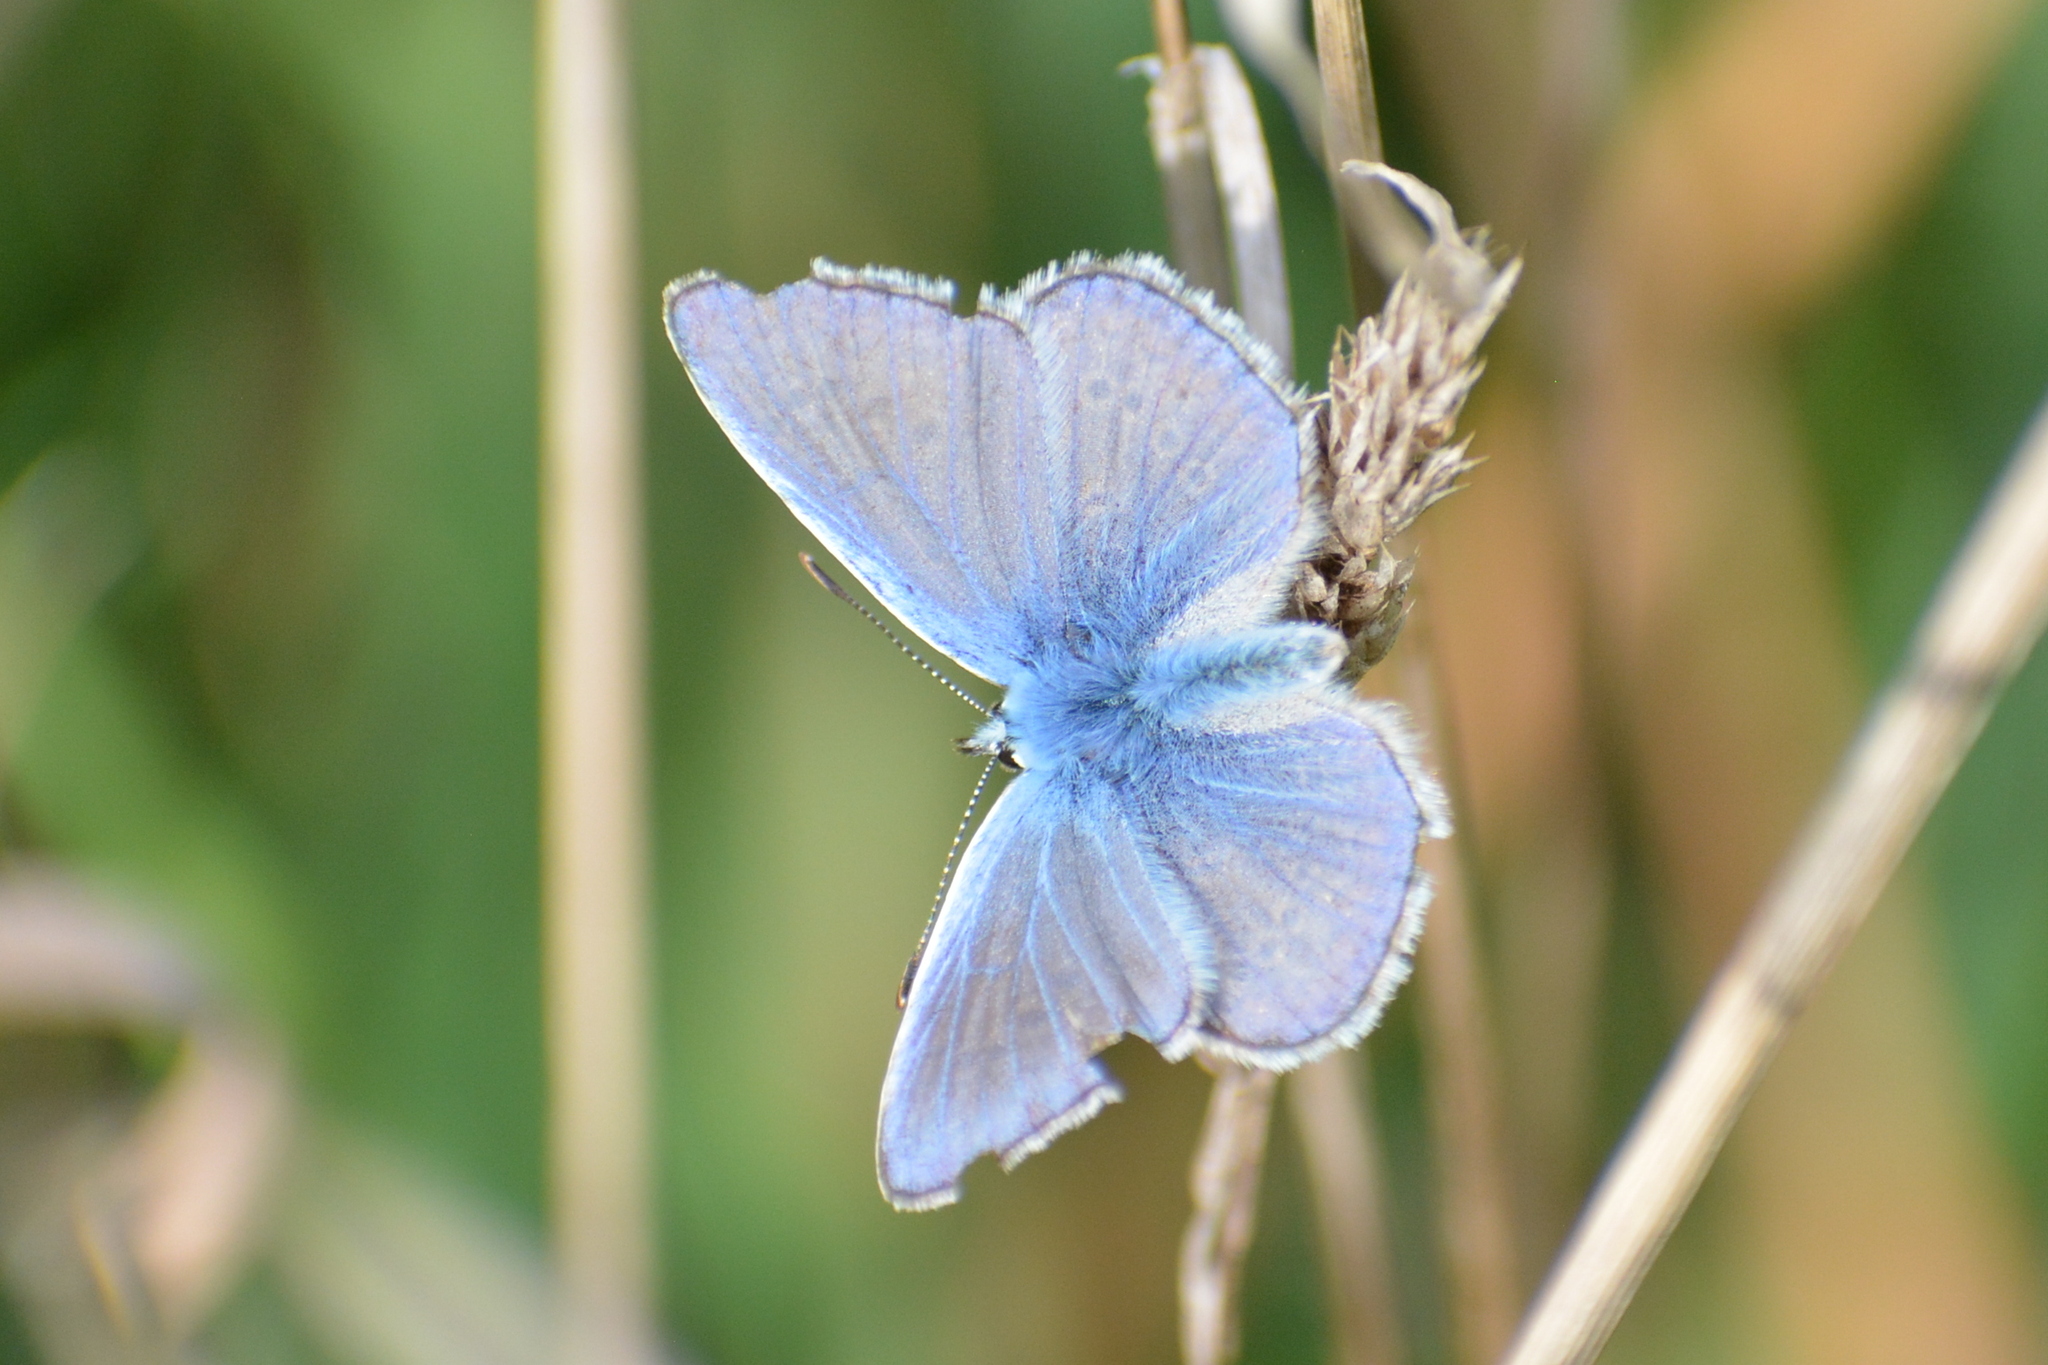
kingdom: Animalia
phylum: Arthropoda
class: Insecta
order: Lepidoptera
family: Lycaenidae
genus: Polyommatus
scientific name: Polyommatus icarus
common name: Common blue
